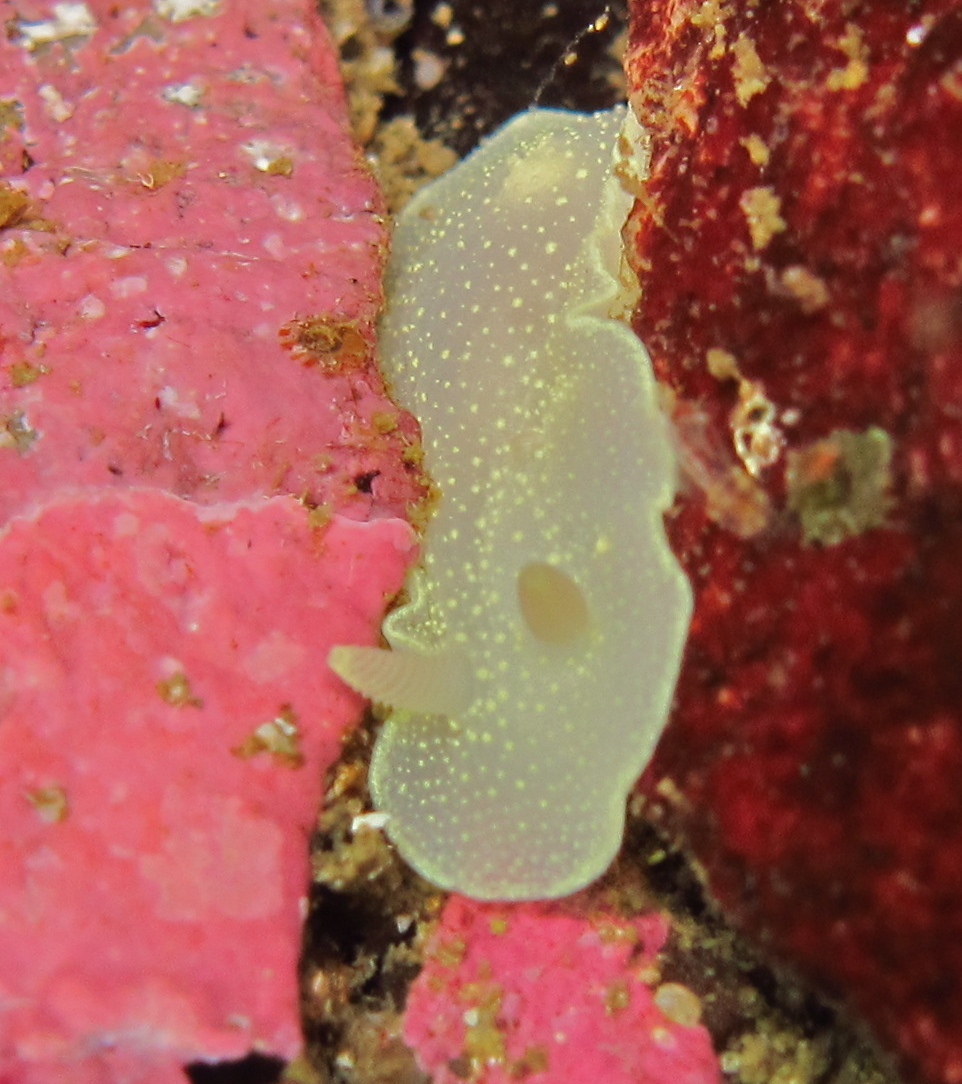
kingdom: Animalia
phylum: Mollusca
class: Gastropoda
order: Nudibranchia
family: Cadlinidae
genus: Cadlina
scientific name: Cadlina laevis
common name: White atlantic cadlina
